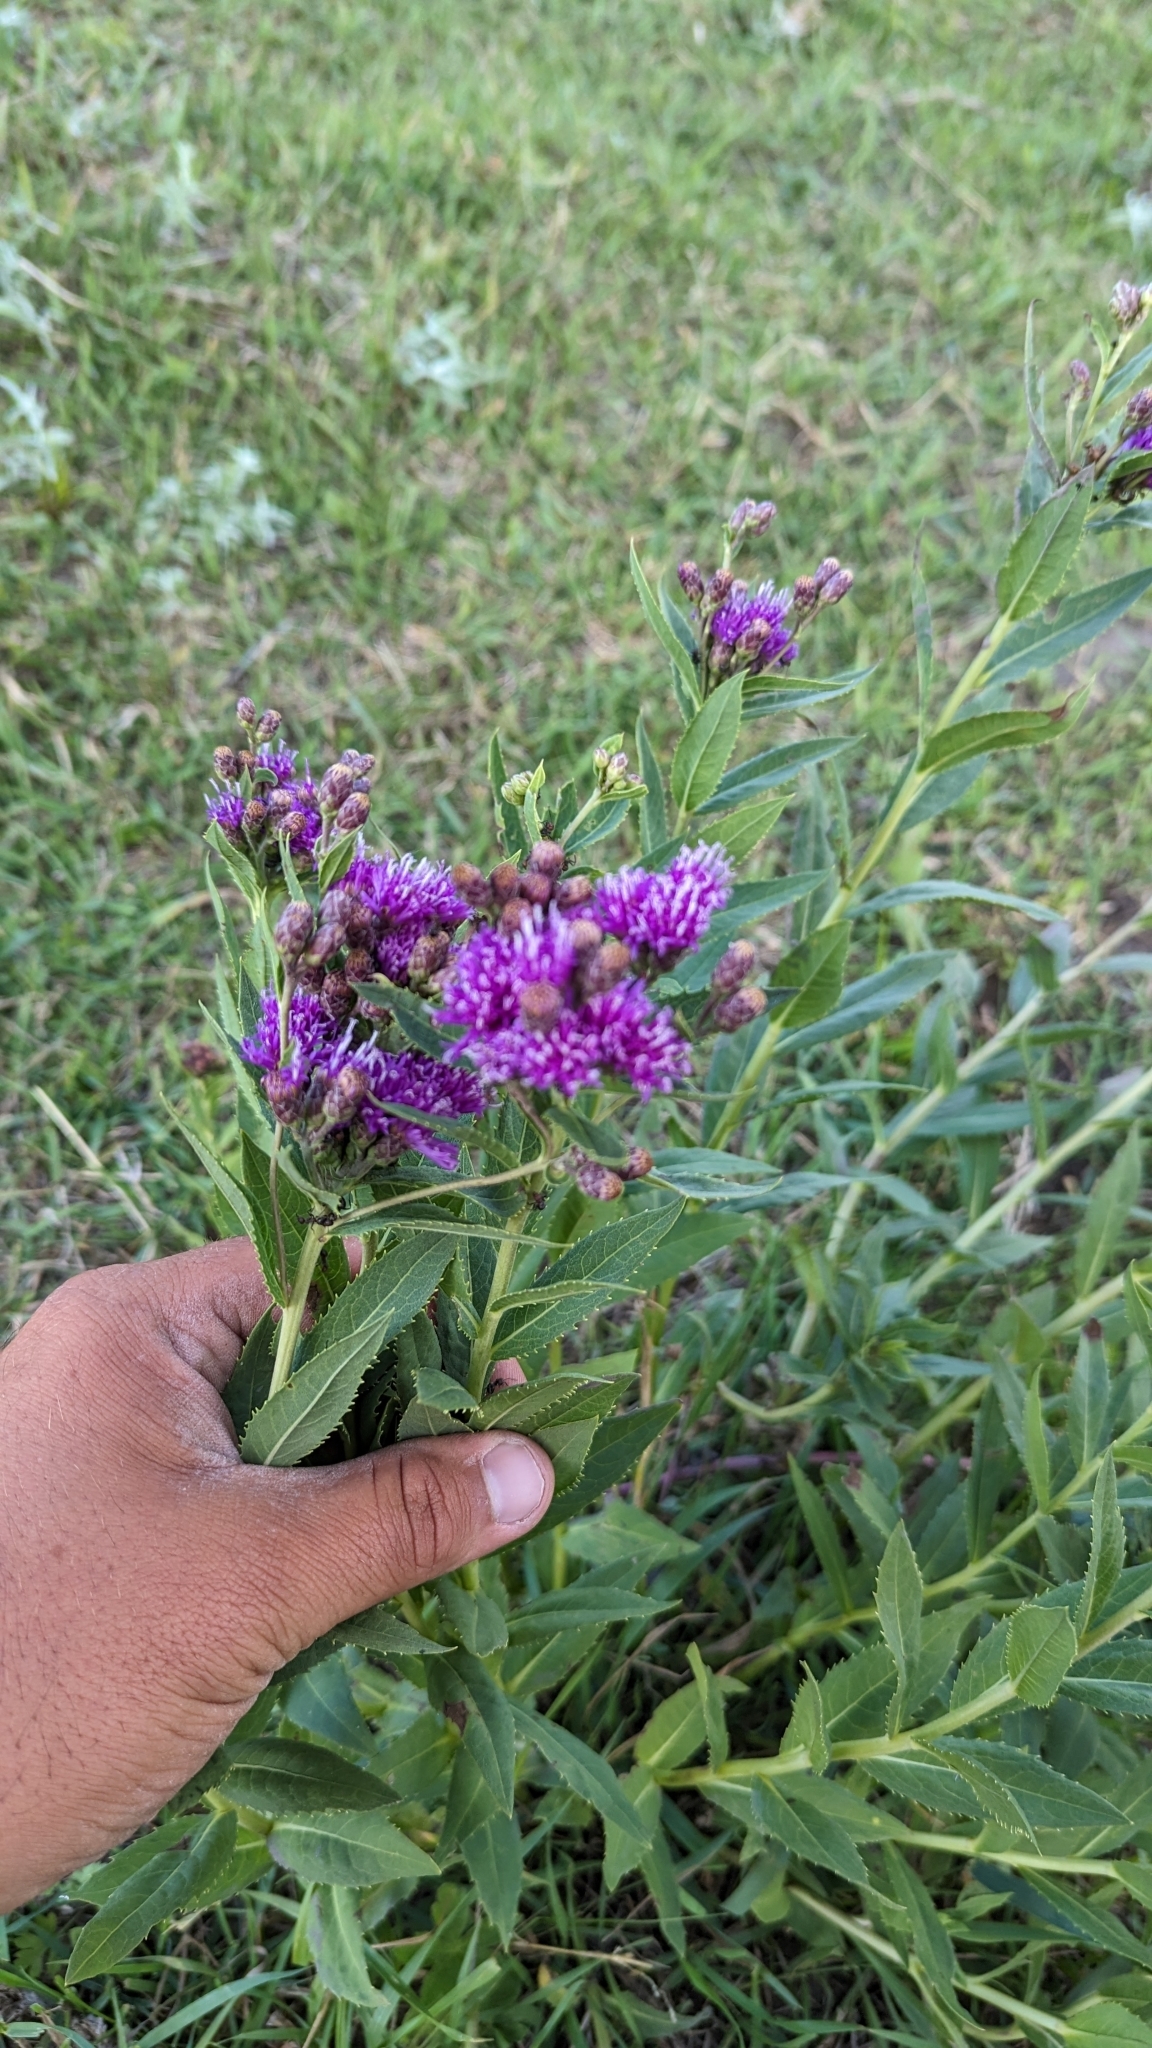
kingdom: Plantae
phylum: Tracheophyta
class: Magnoliopsida
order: Asterales
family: Asteraceae
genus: Vernonia
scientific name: Vernonia fasciculata
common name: Fascicled ironweed
